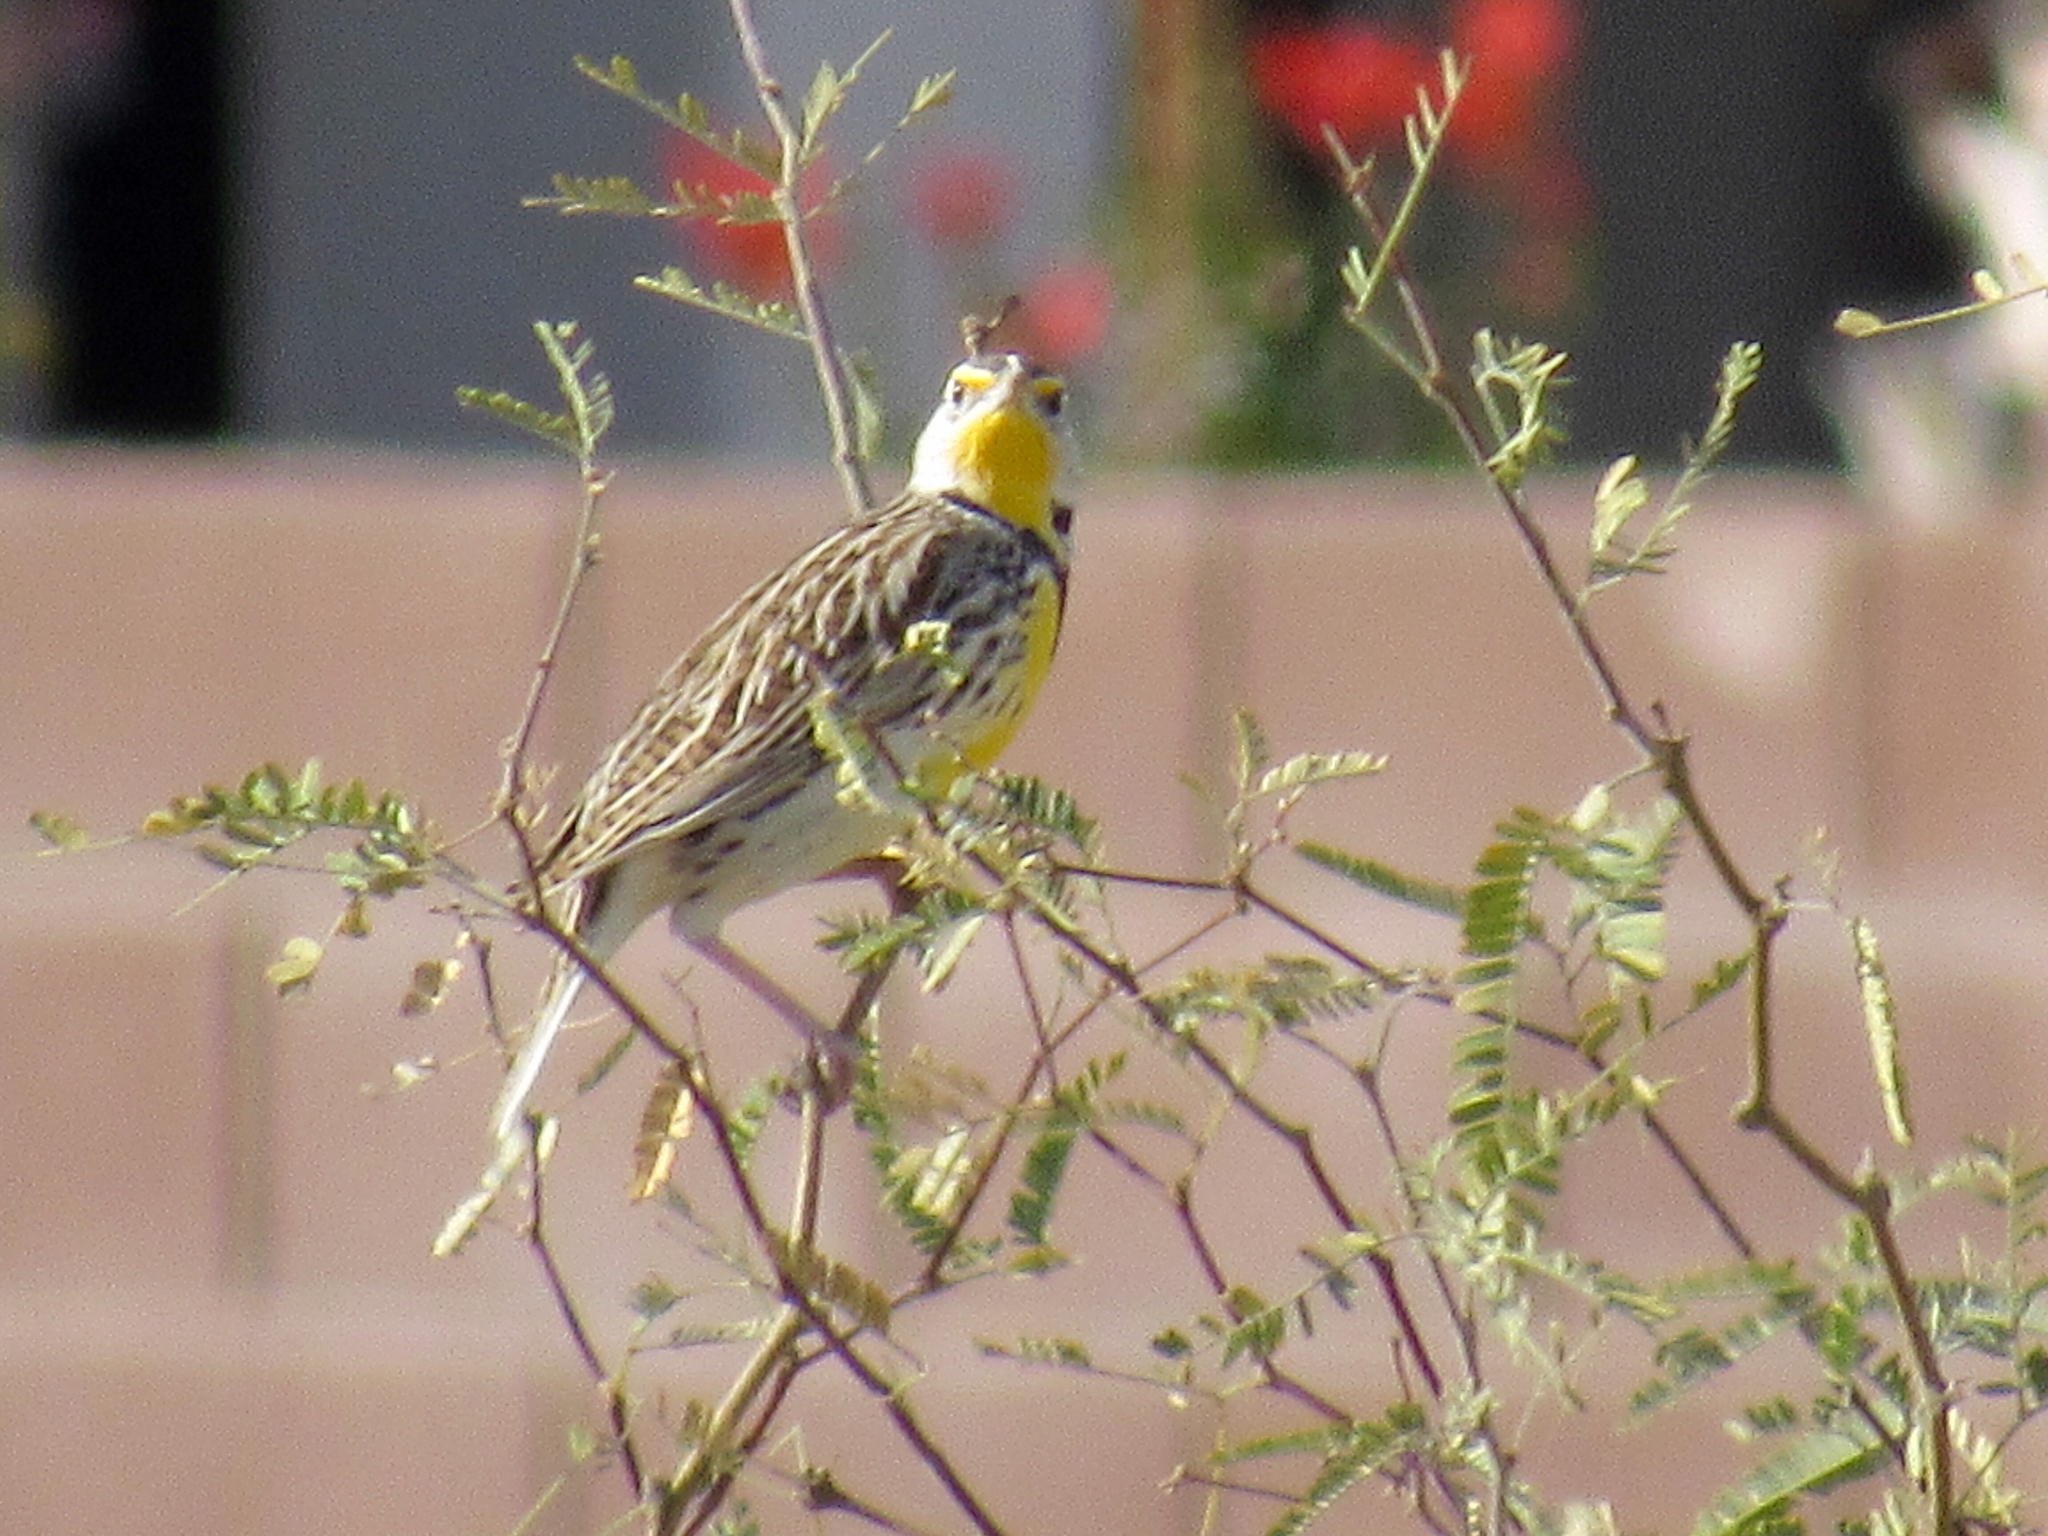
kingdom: Animalia
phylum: Chordata
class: Aves
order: Passeriformes
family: Icteridae
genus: Sturnella
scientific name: Sturnella lilianae
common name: Lilian's meadowlark
